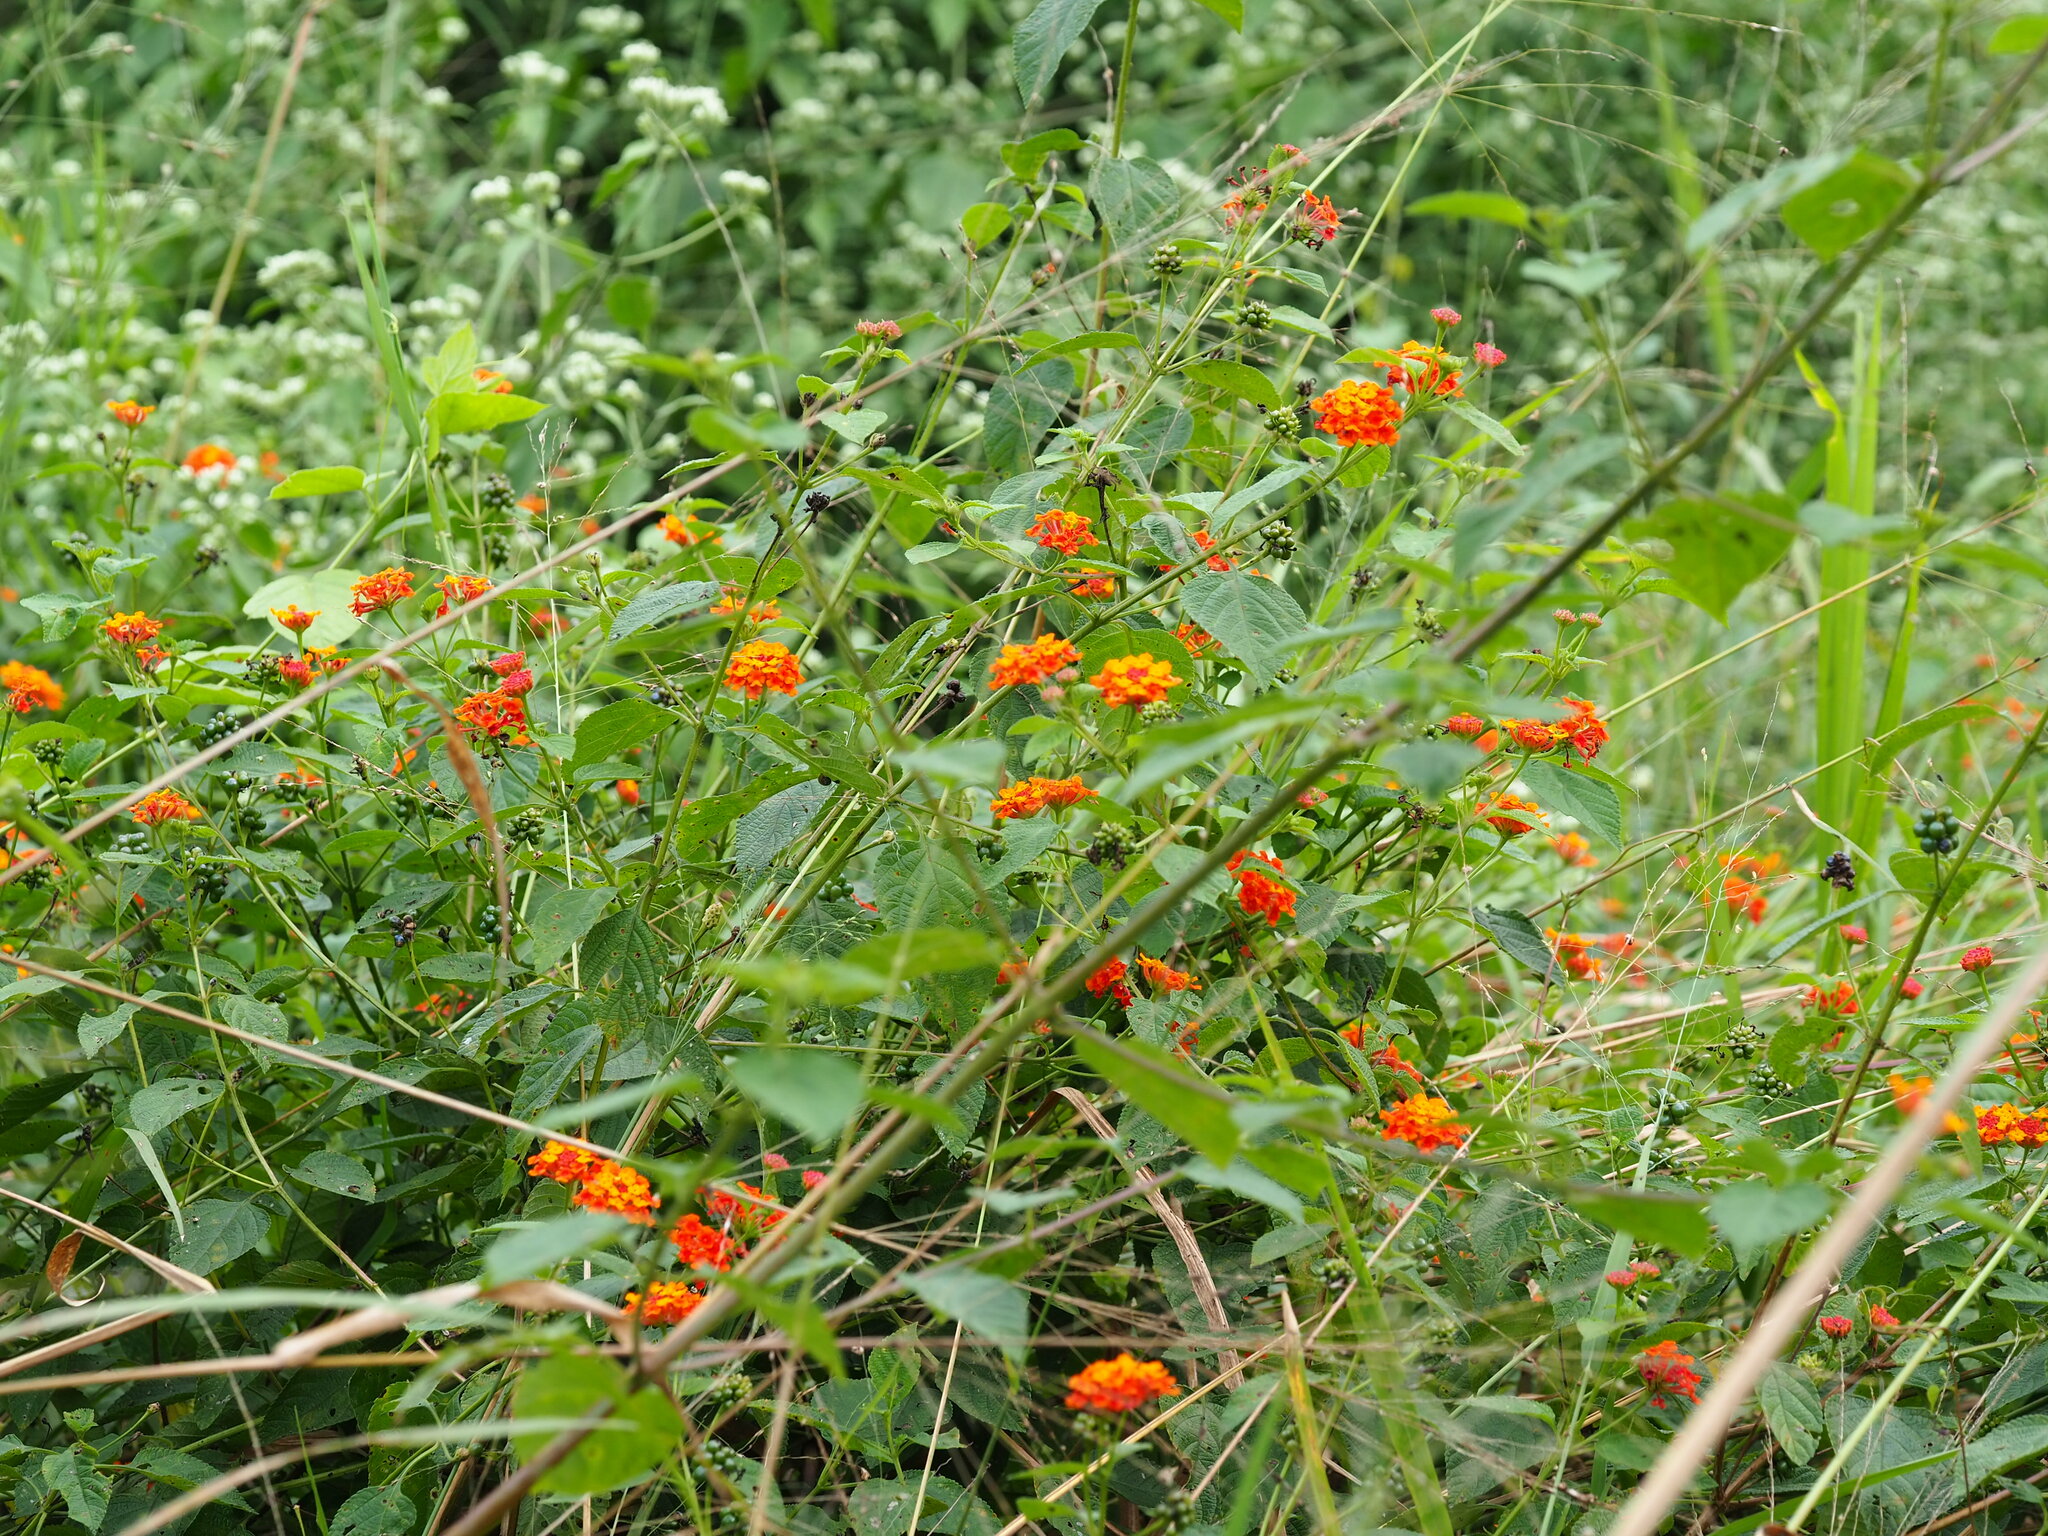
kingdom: Plantae
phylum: Tracheophyta
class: Magnoliopsida
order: Lamiales
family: Verbenaceae
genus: Lantana
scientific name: Lantana camara
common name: Lantana
